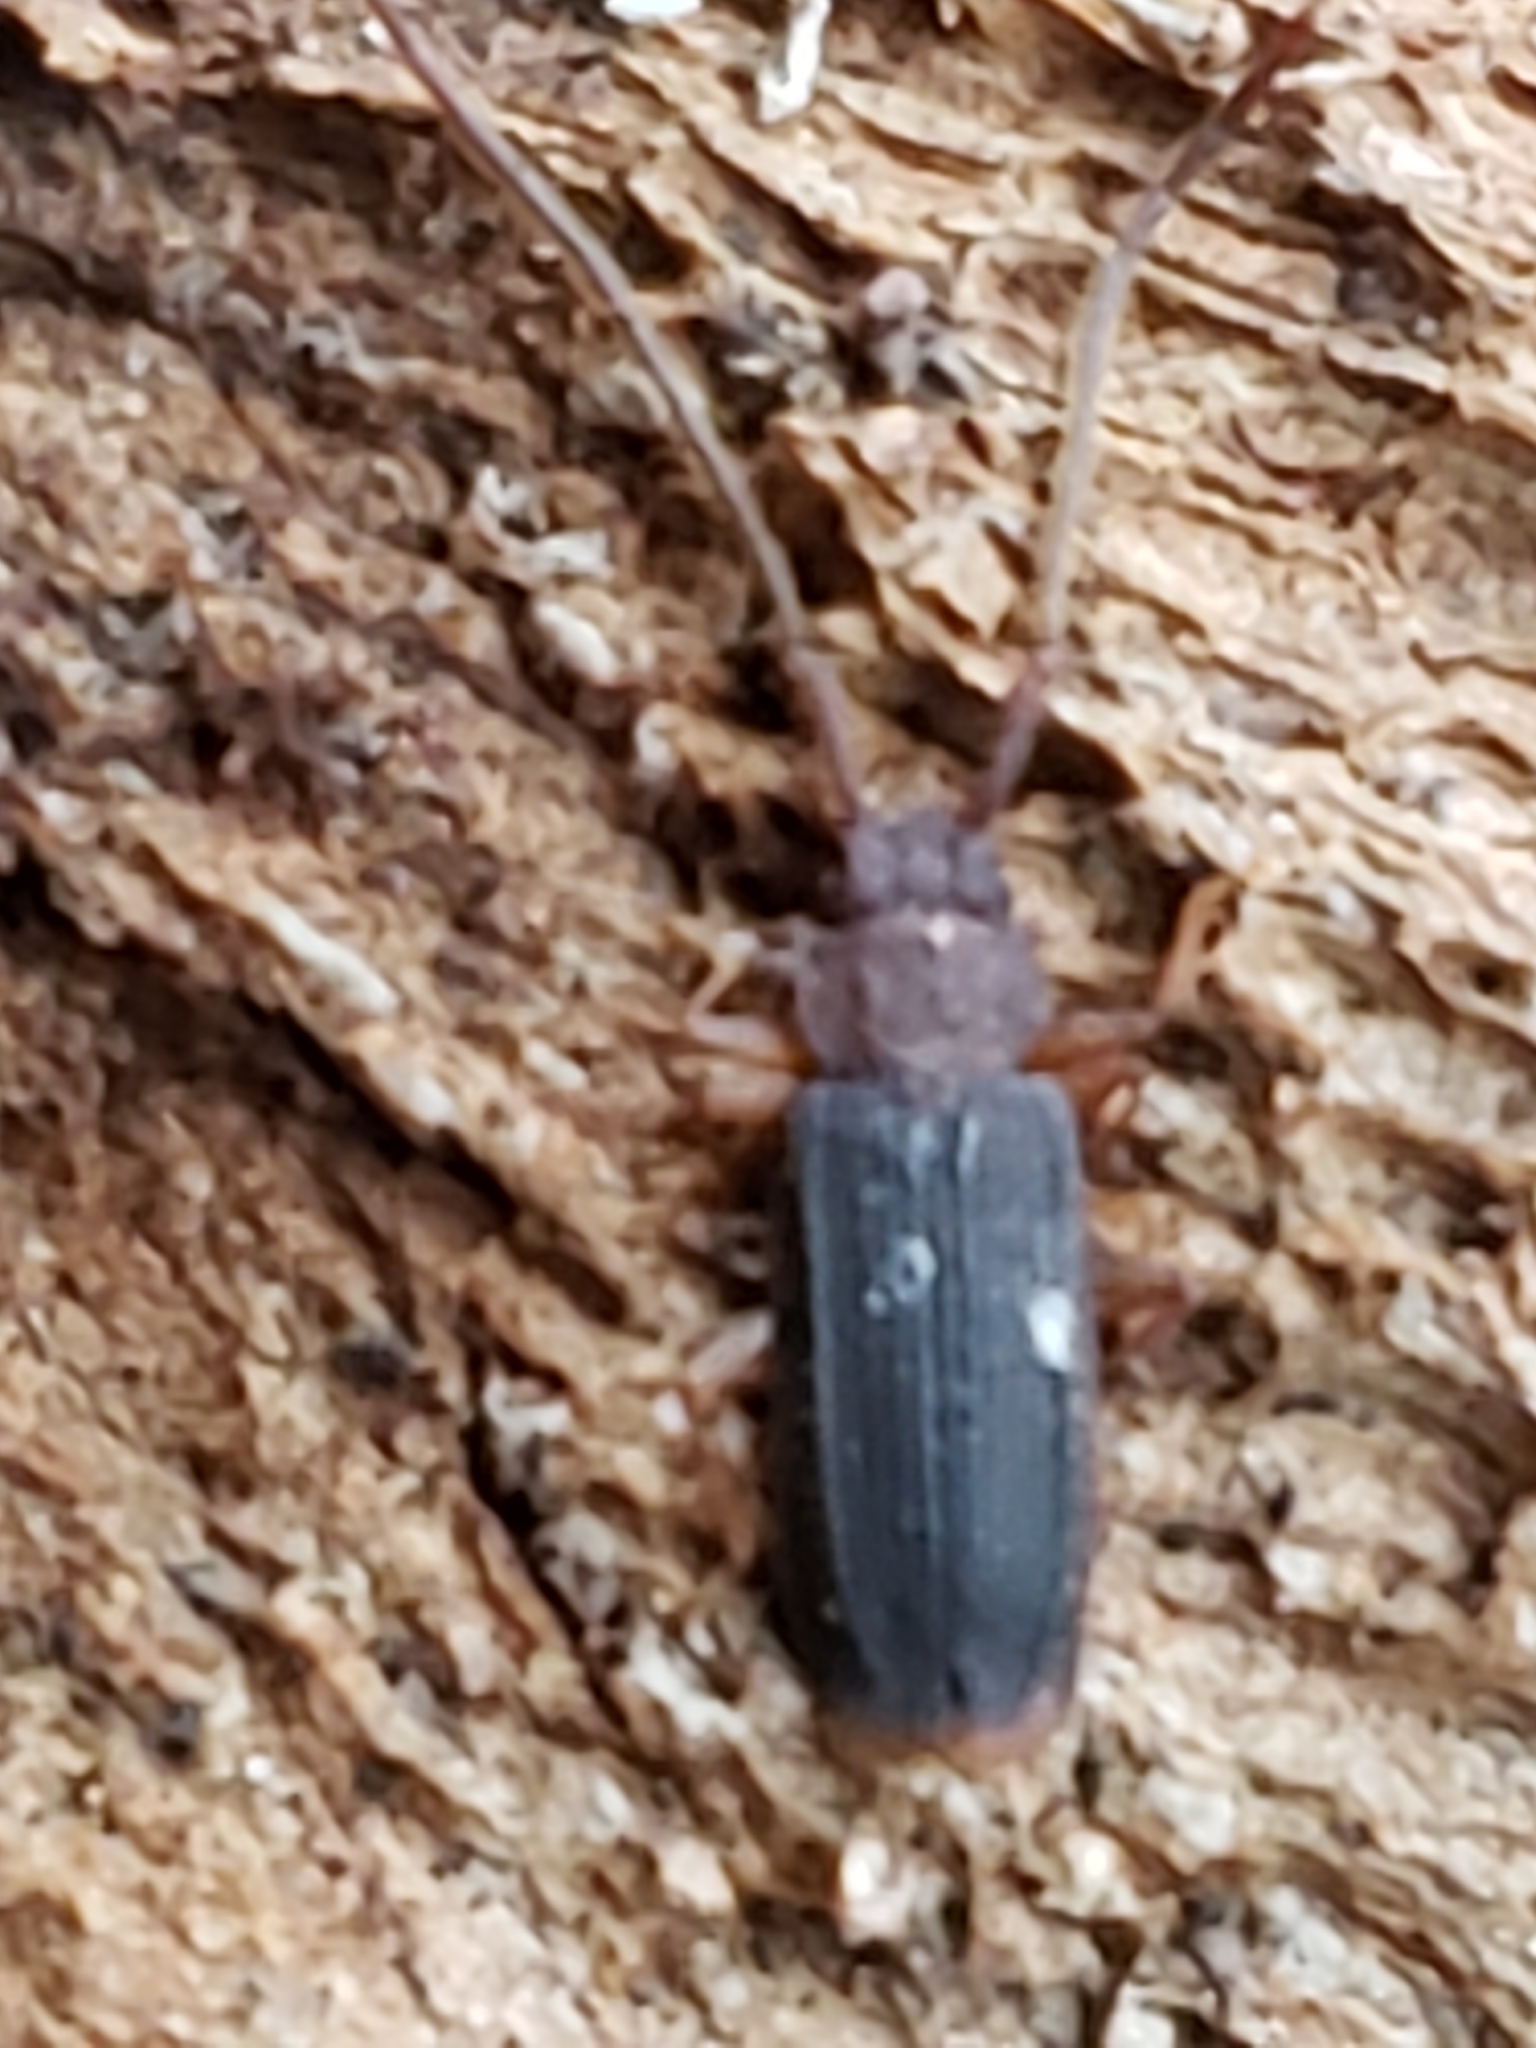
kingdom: Animalia
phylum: Arthropoda
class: Insecta
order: Coleoptera
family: Silvanidae
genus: Uleiota
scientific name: Uleiota dubia
